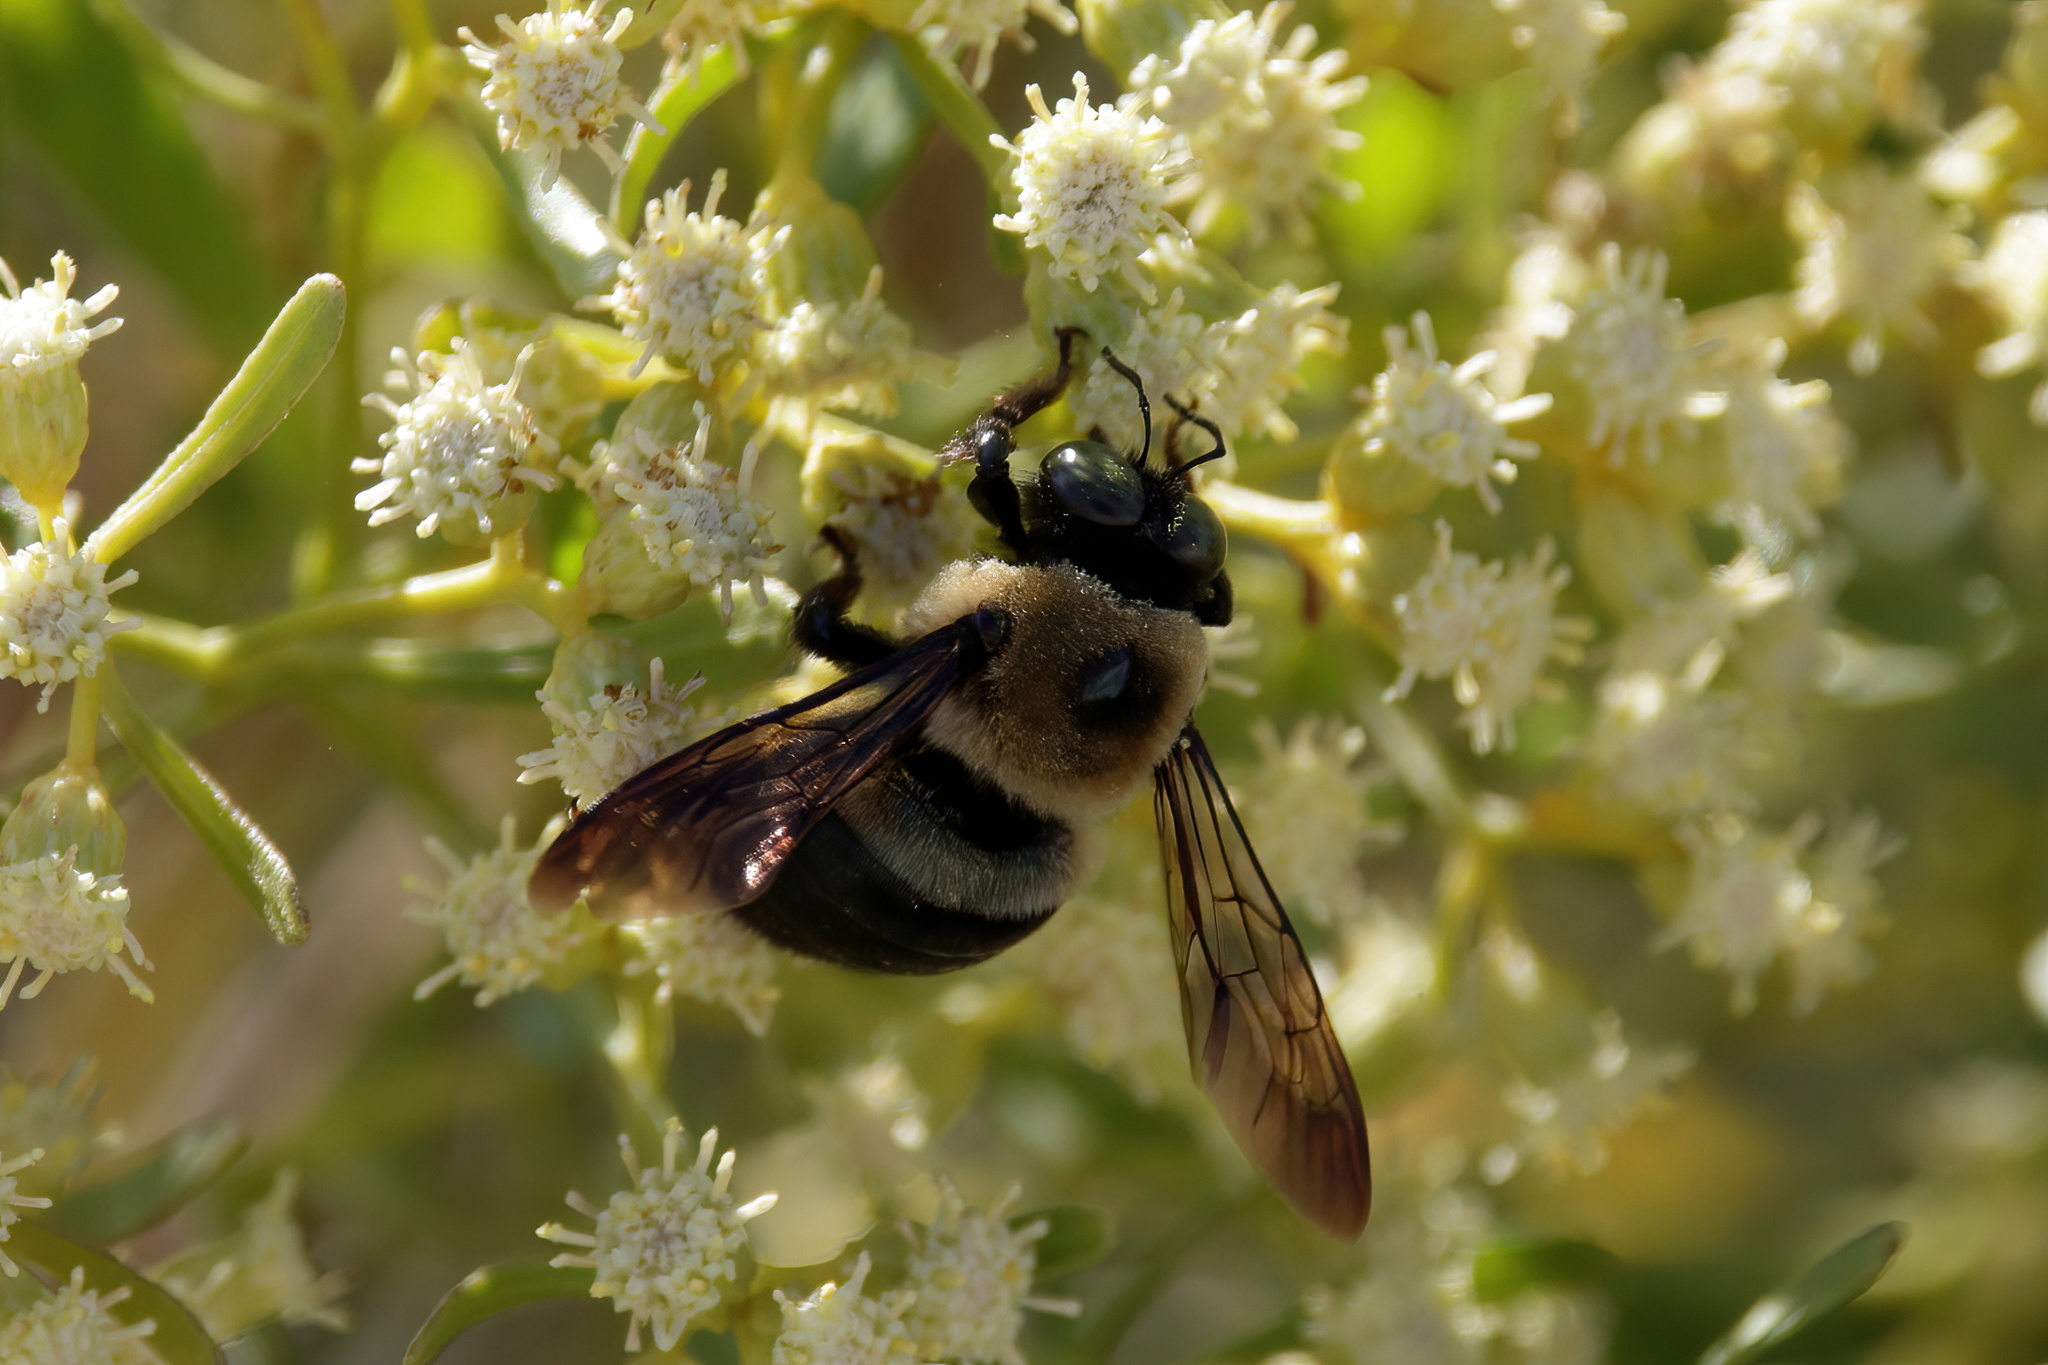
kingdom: Animalia
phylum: Arthropoda
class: Insecta
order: Hymenoptera
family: Apidae
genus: Xylocopa
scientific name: Xylocopa virginica
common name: Carpenter bee
